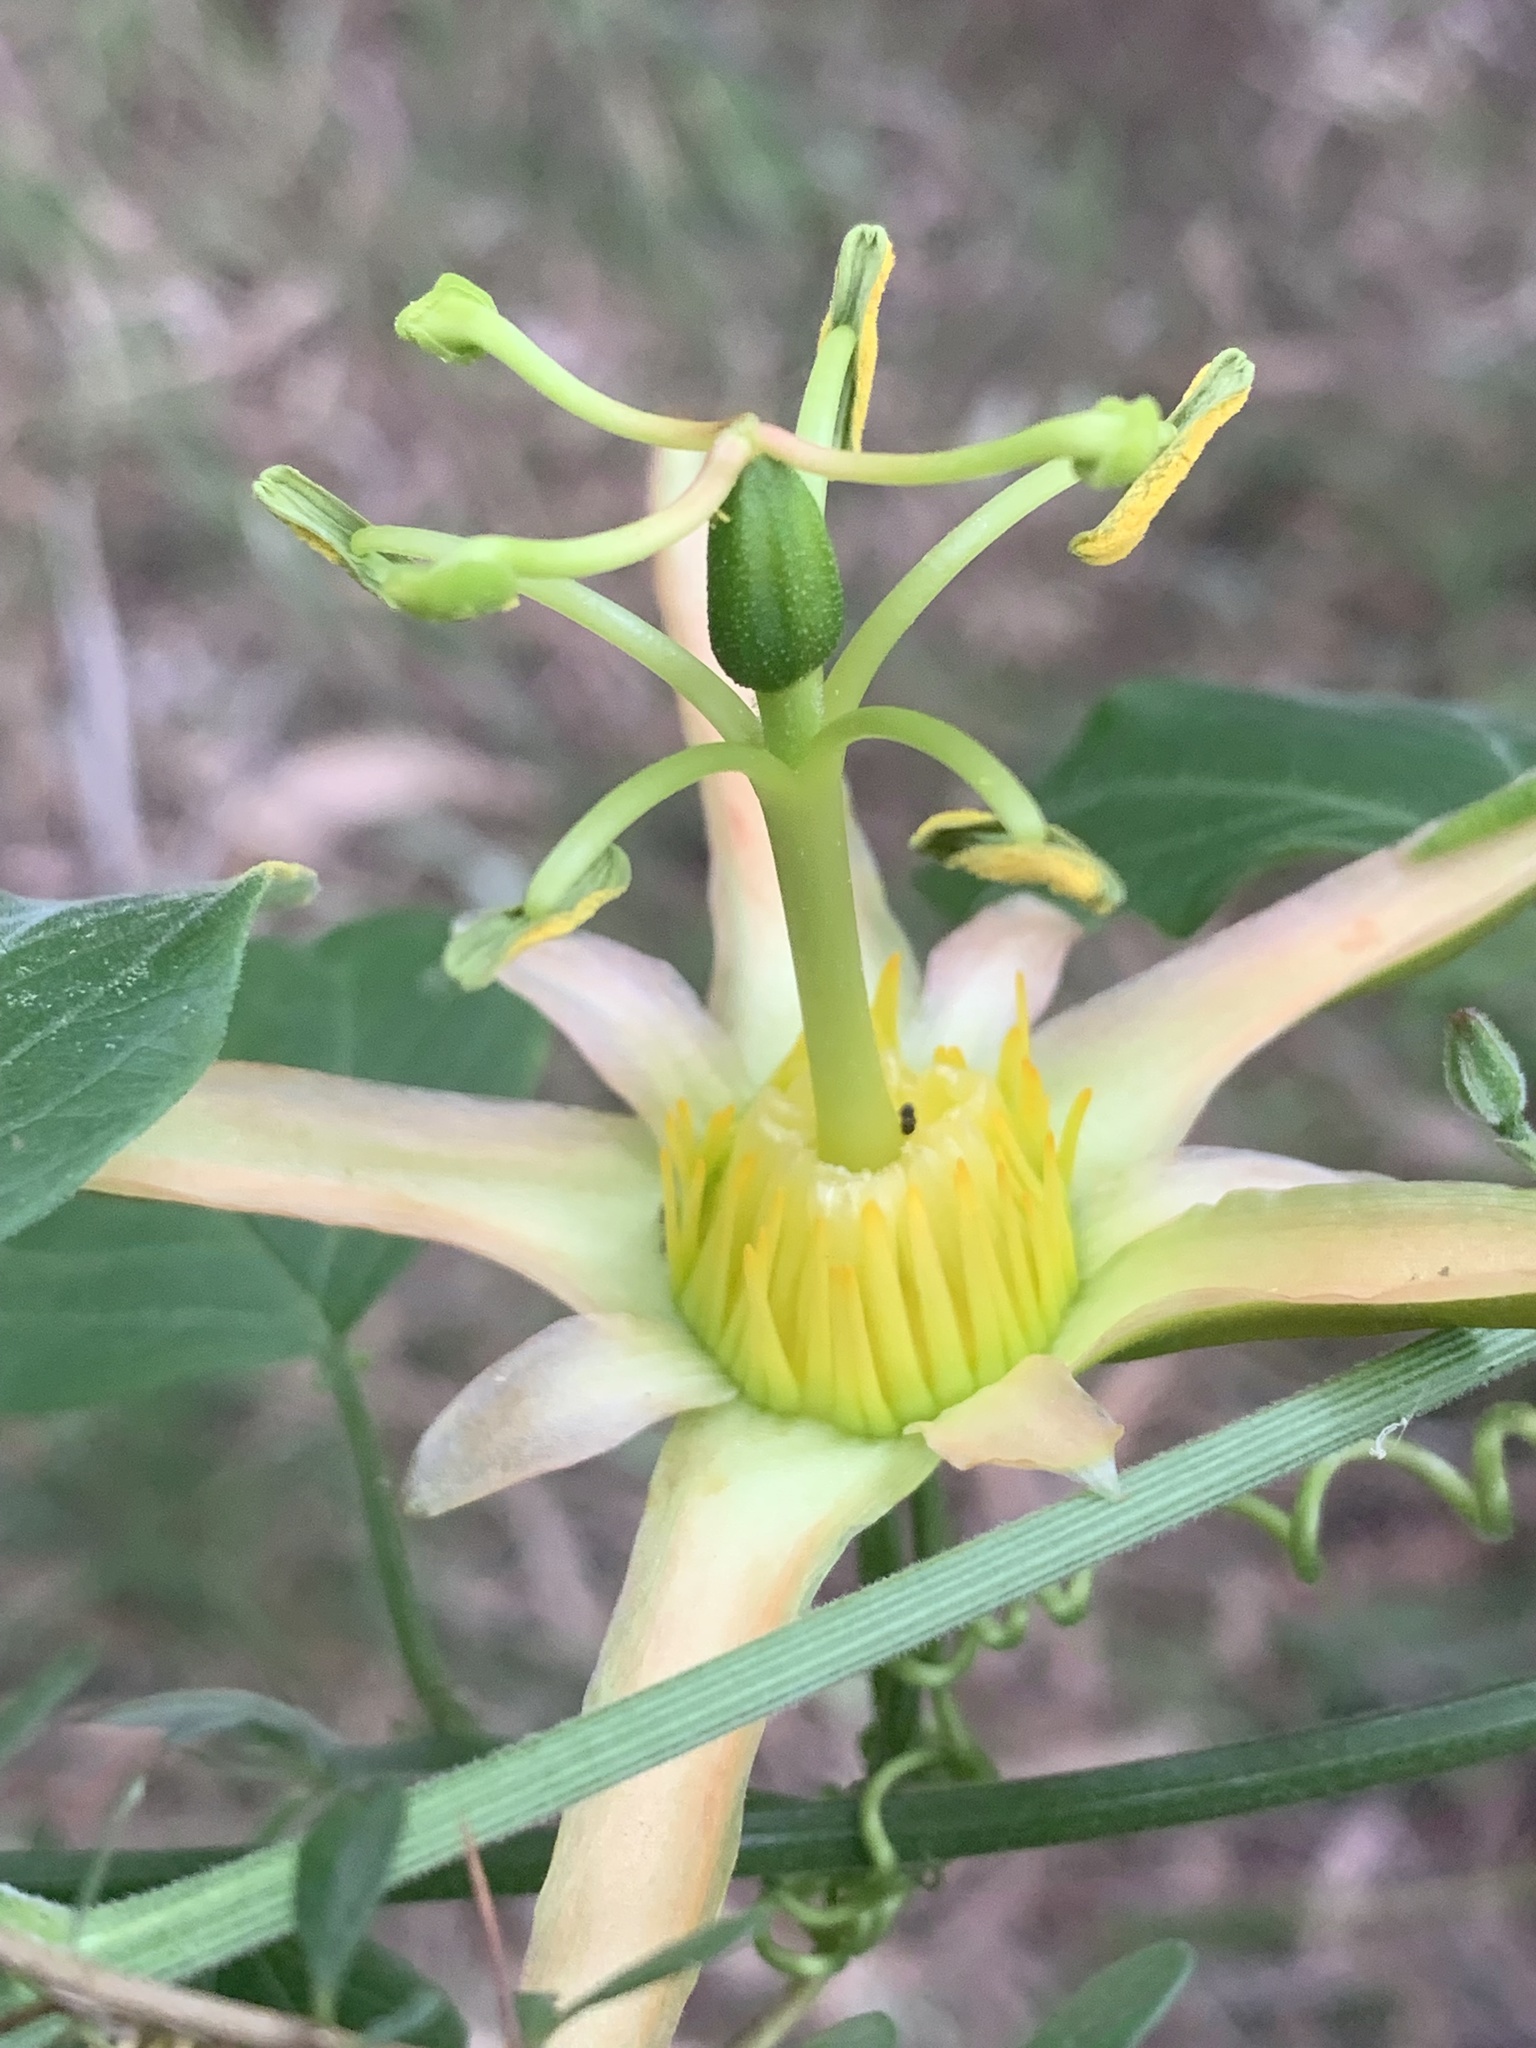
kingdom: Plantae
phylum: Tracheophyta
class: Magnoliopsida
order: Malpighiales
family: Passifloraceae
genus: Passiflora
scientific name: Passiflora herbertiana
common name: Yellow passionflower
